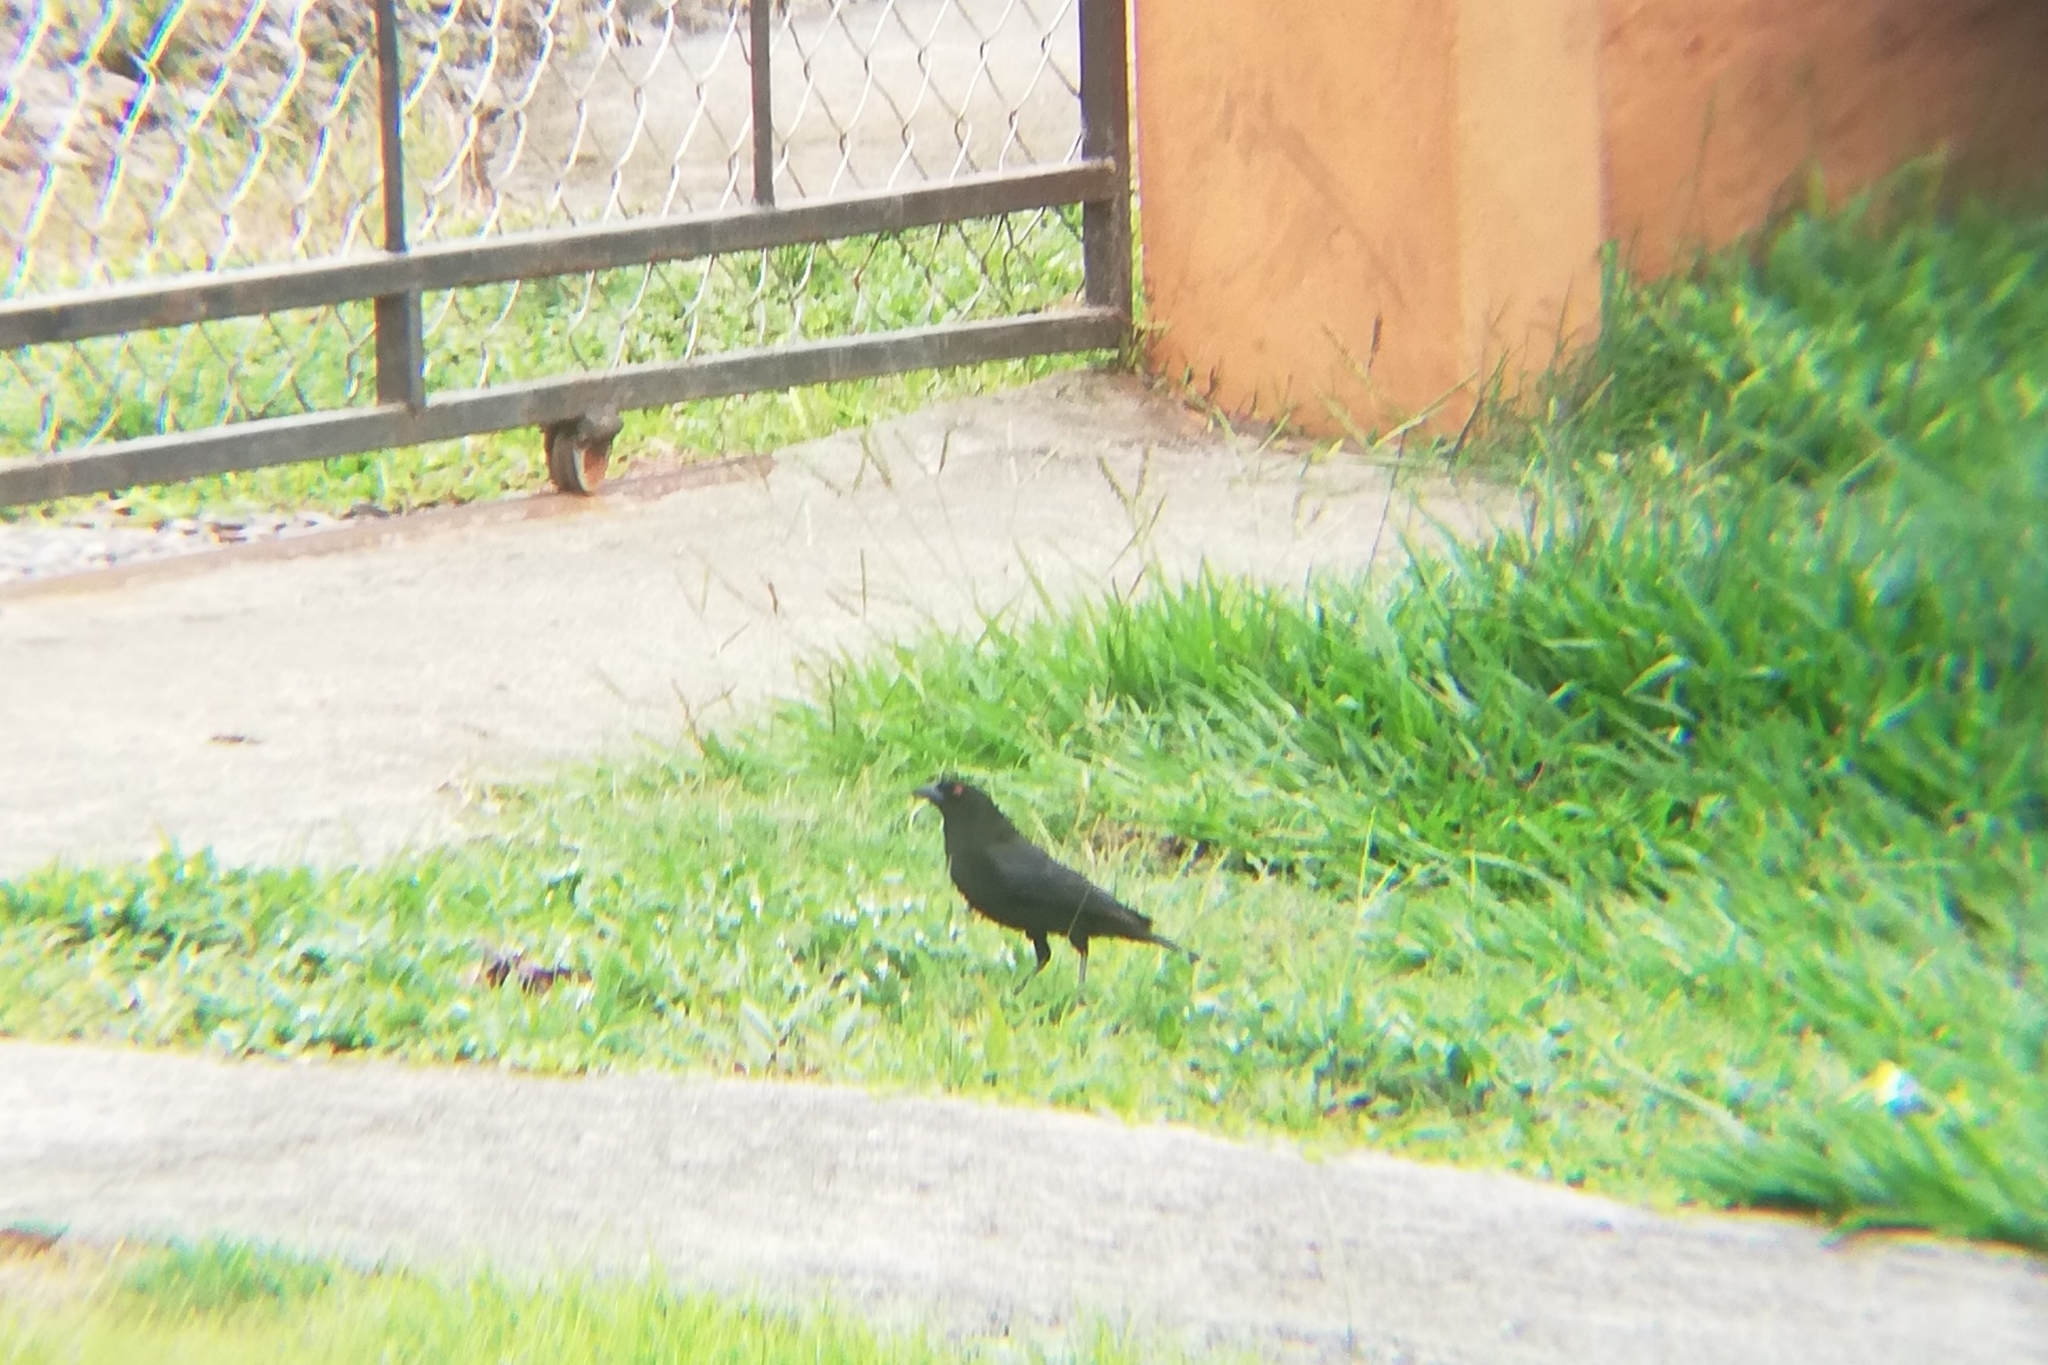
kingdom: Animalia
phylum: Chordata
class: Aves
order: Passeriformes
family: Icteridae
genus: Molothrus
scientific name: Molothrus aeneus
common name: Bronzed cowbird
